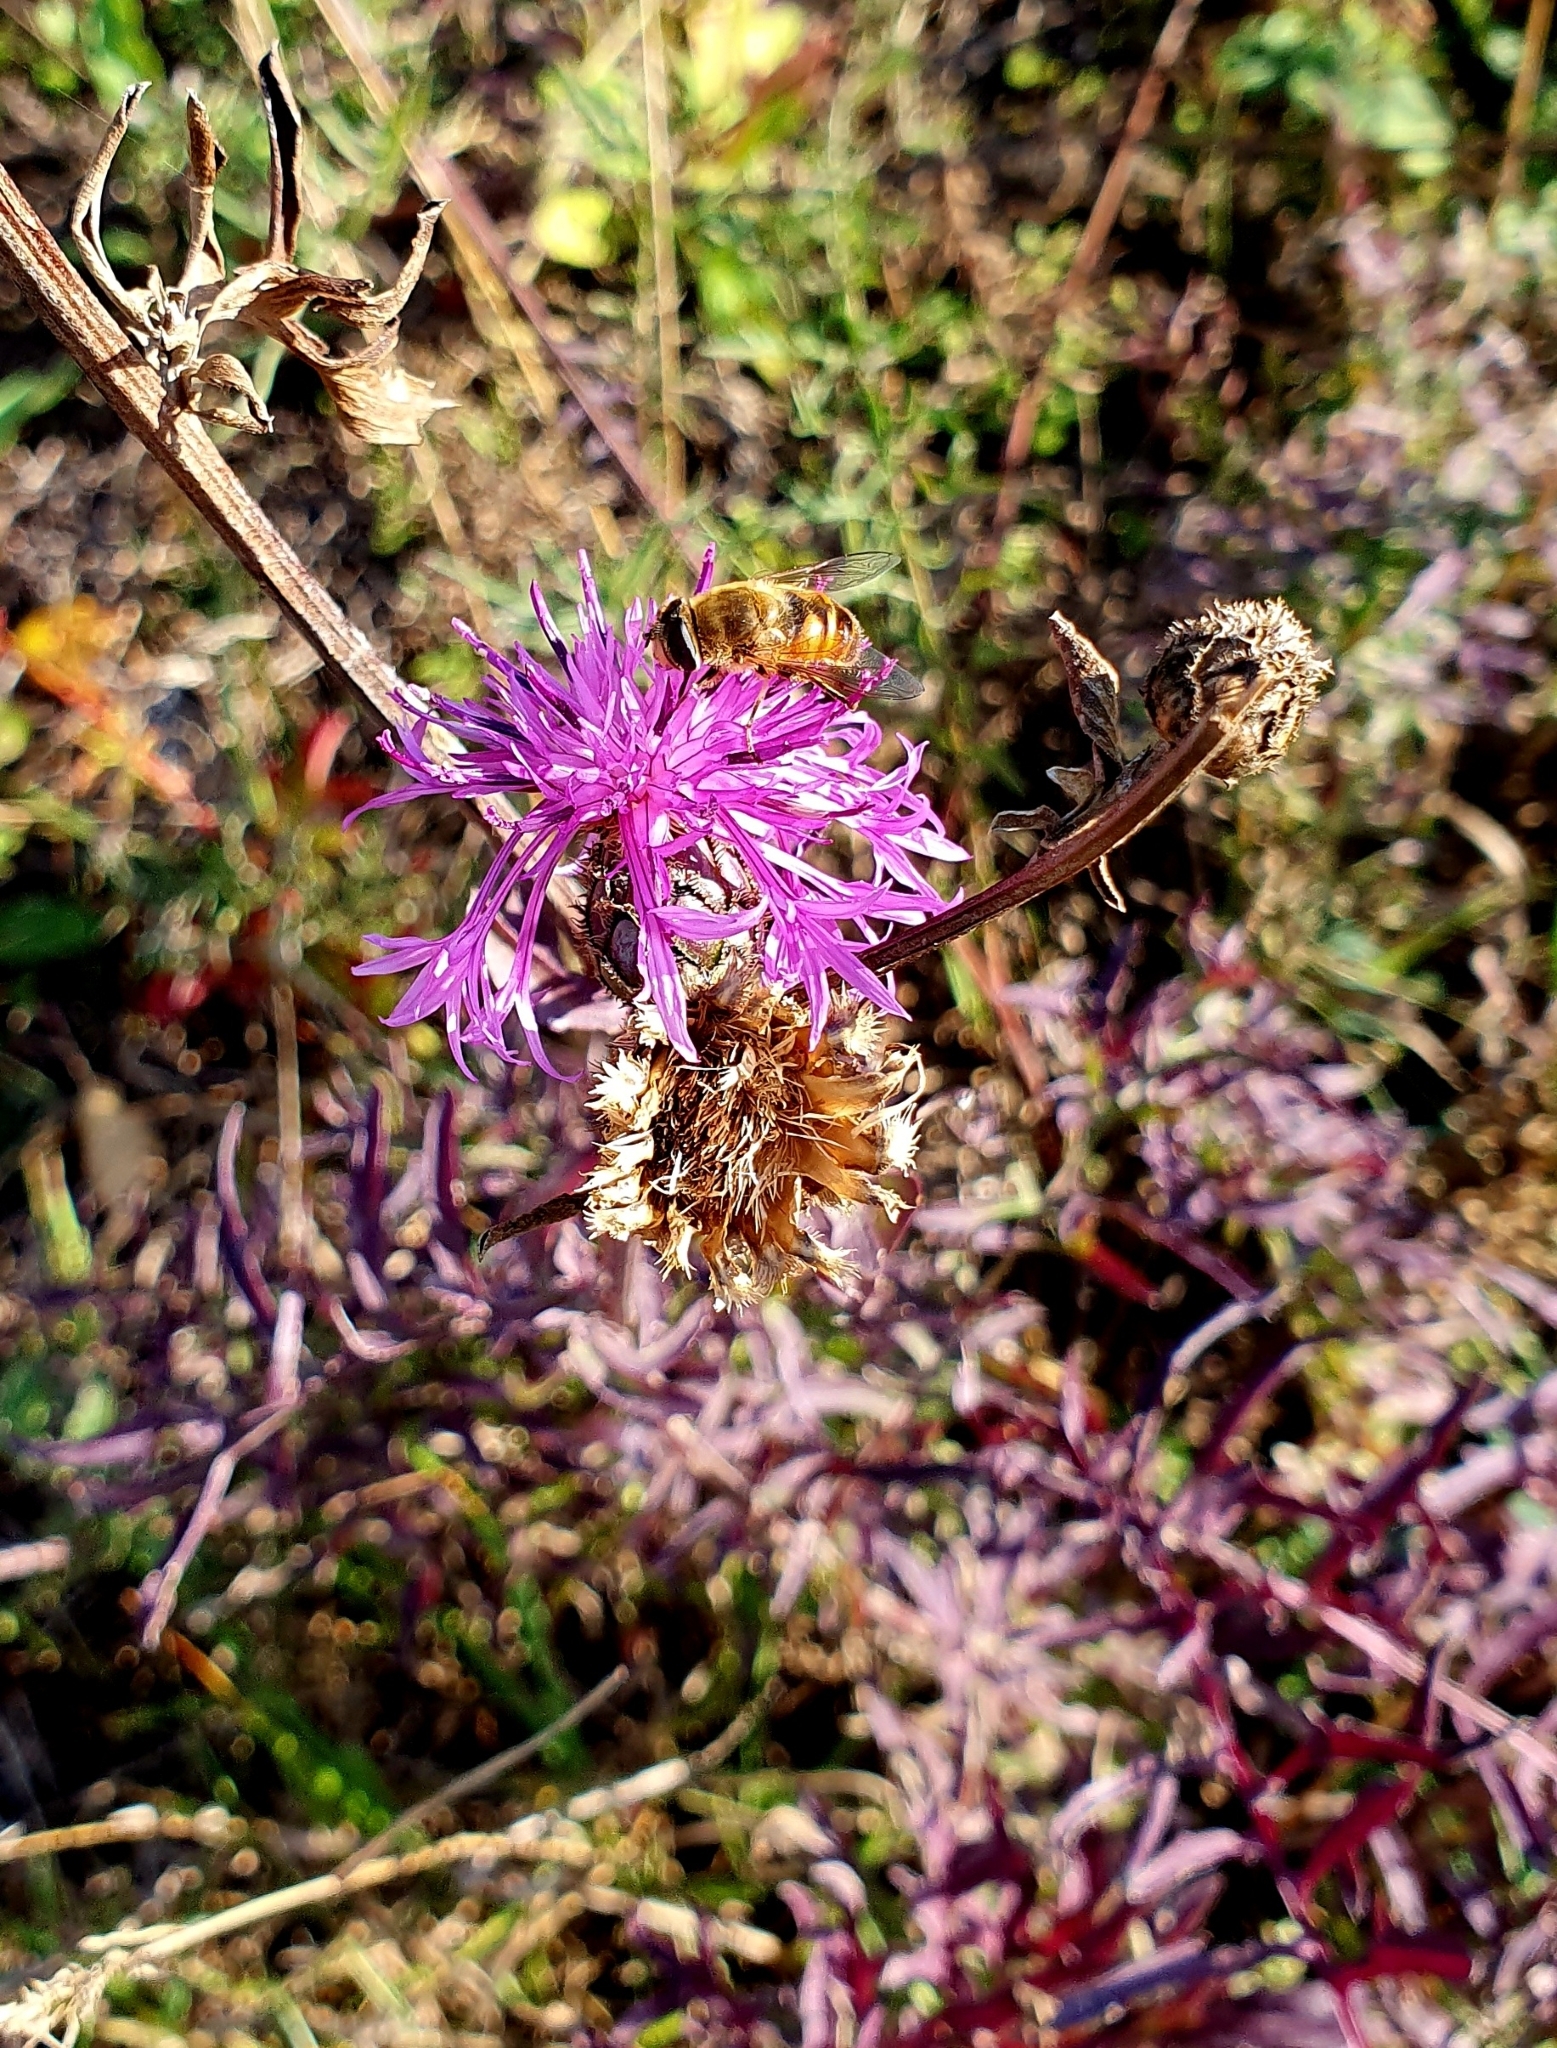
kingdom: Plantae
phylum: Tracheophyta
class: Magnoliopsida
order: Asterales
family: Asteraceae
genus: Centaurea
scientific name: Centaurea scabiosa
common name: Greater knapweed
